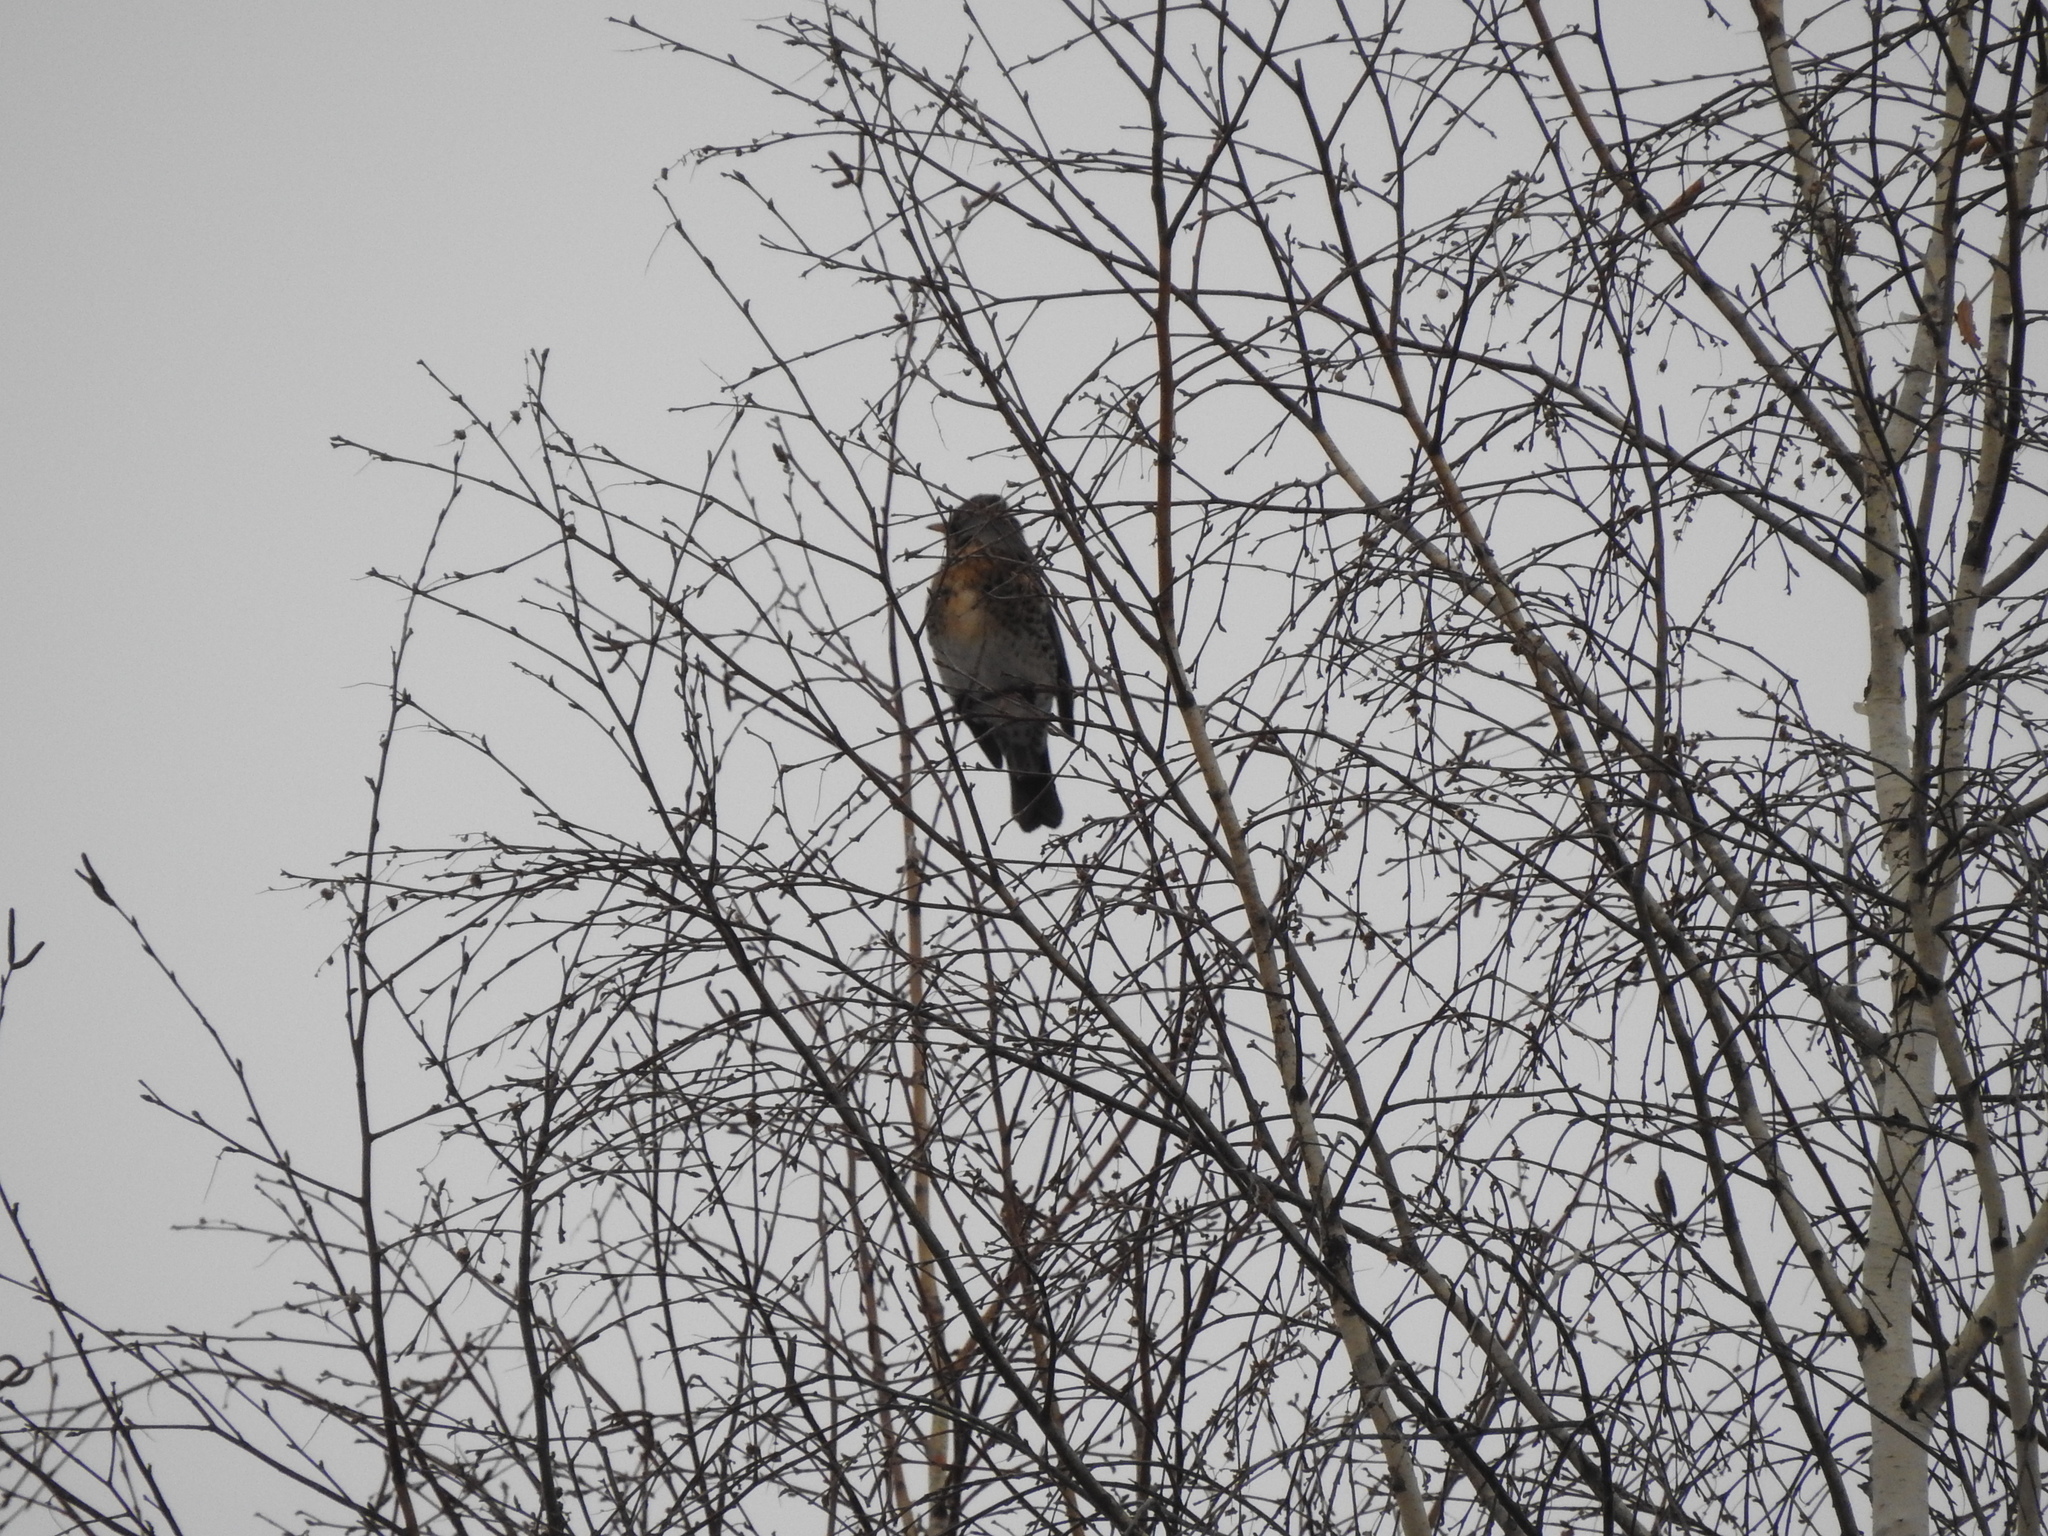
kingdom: Animalia
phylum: Chordata
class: Aves
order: Passeriformes
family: Turdidae
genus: Turdus
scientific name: Turdus pilaris
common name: Fieldfare
